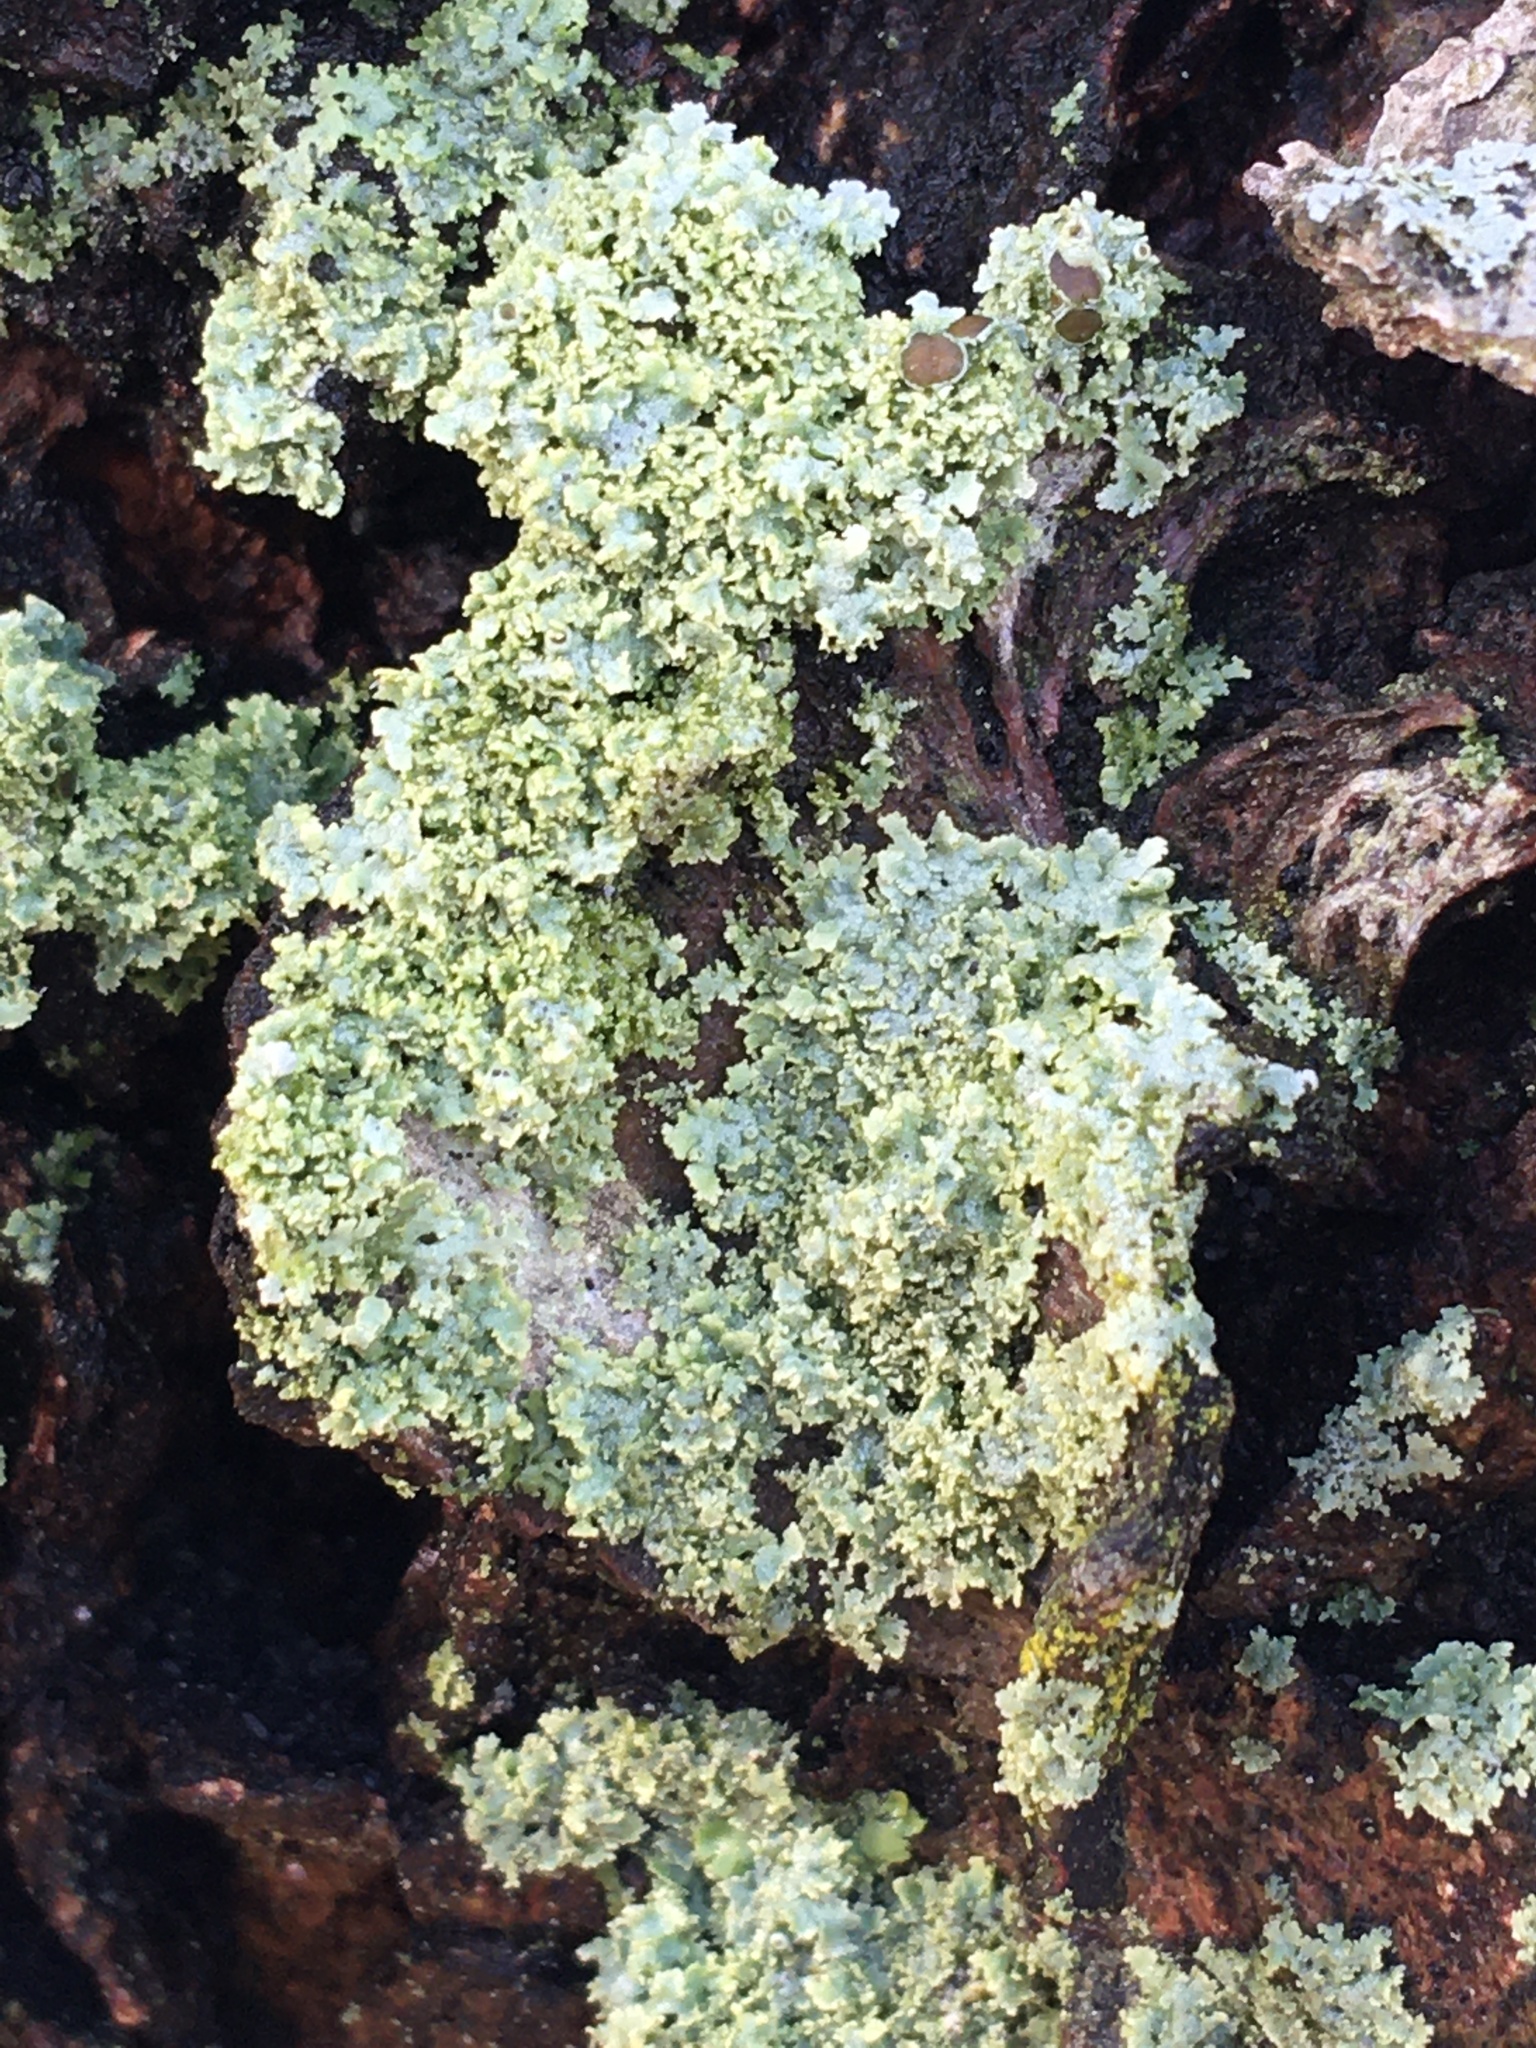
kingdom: Fungi
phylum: Ascomycota
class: Lecanoromycetes
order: Caliciales
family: Physciaceae
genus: Physcia
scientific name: Physcia millegrana
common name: Rosette lichen
